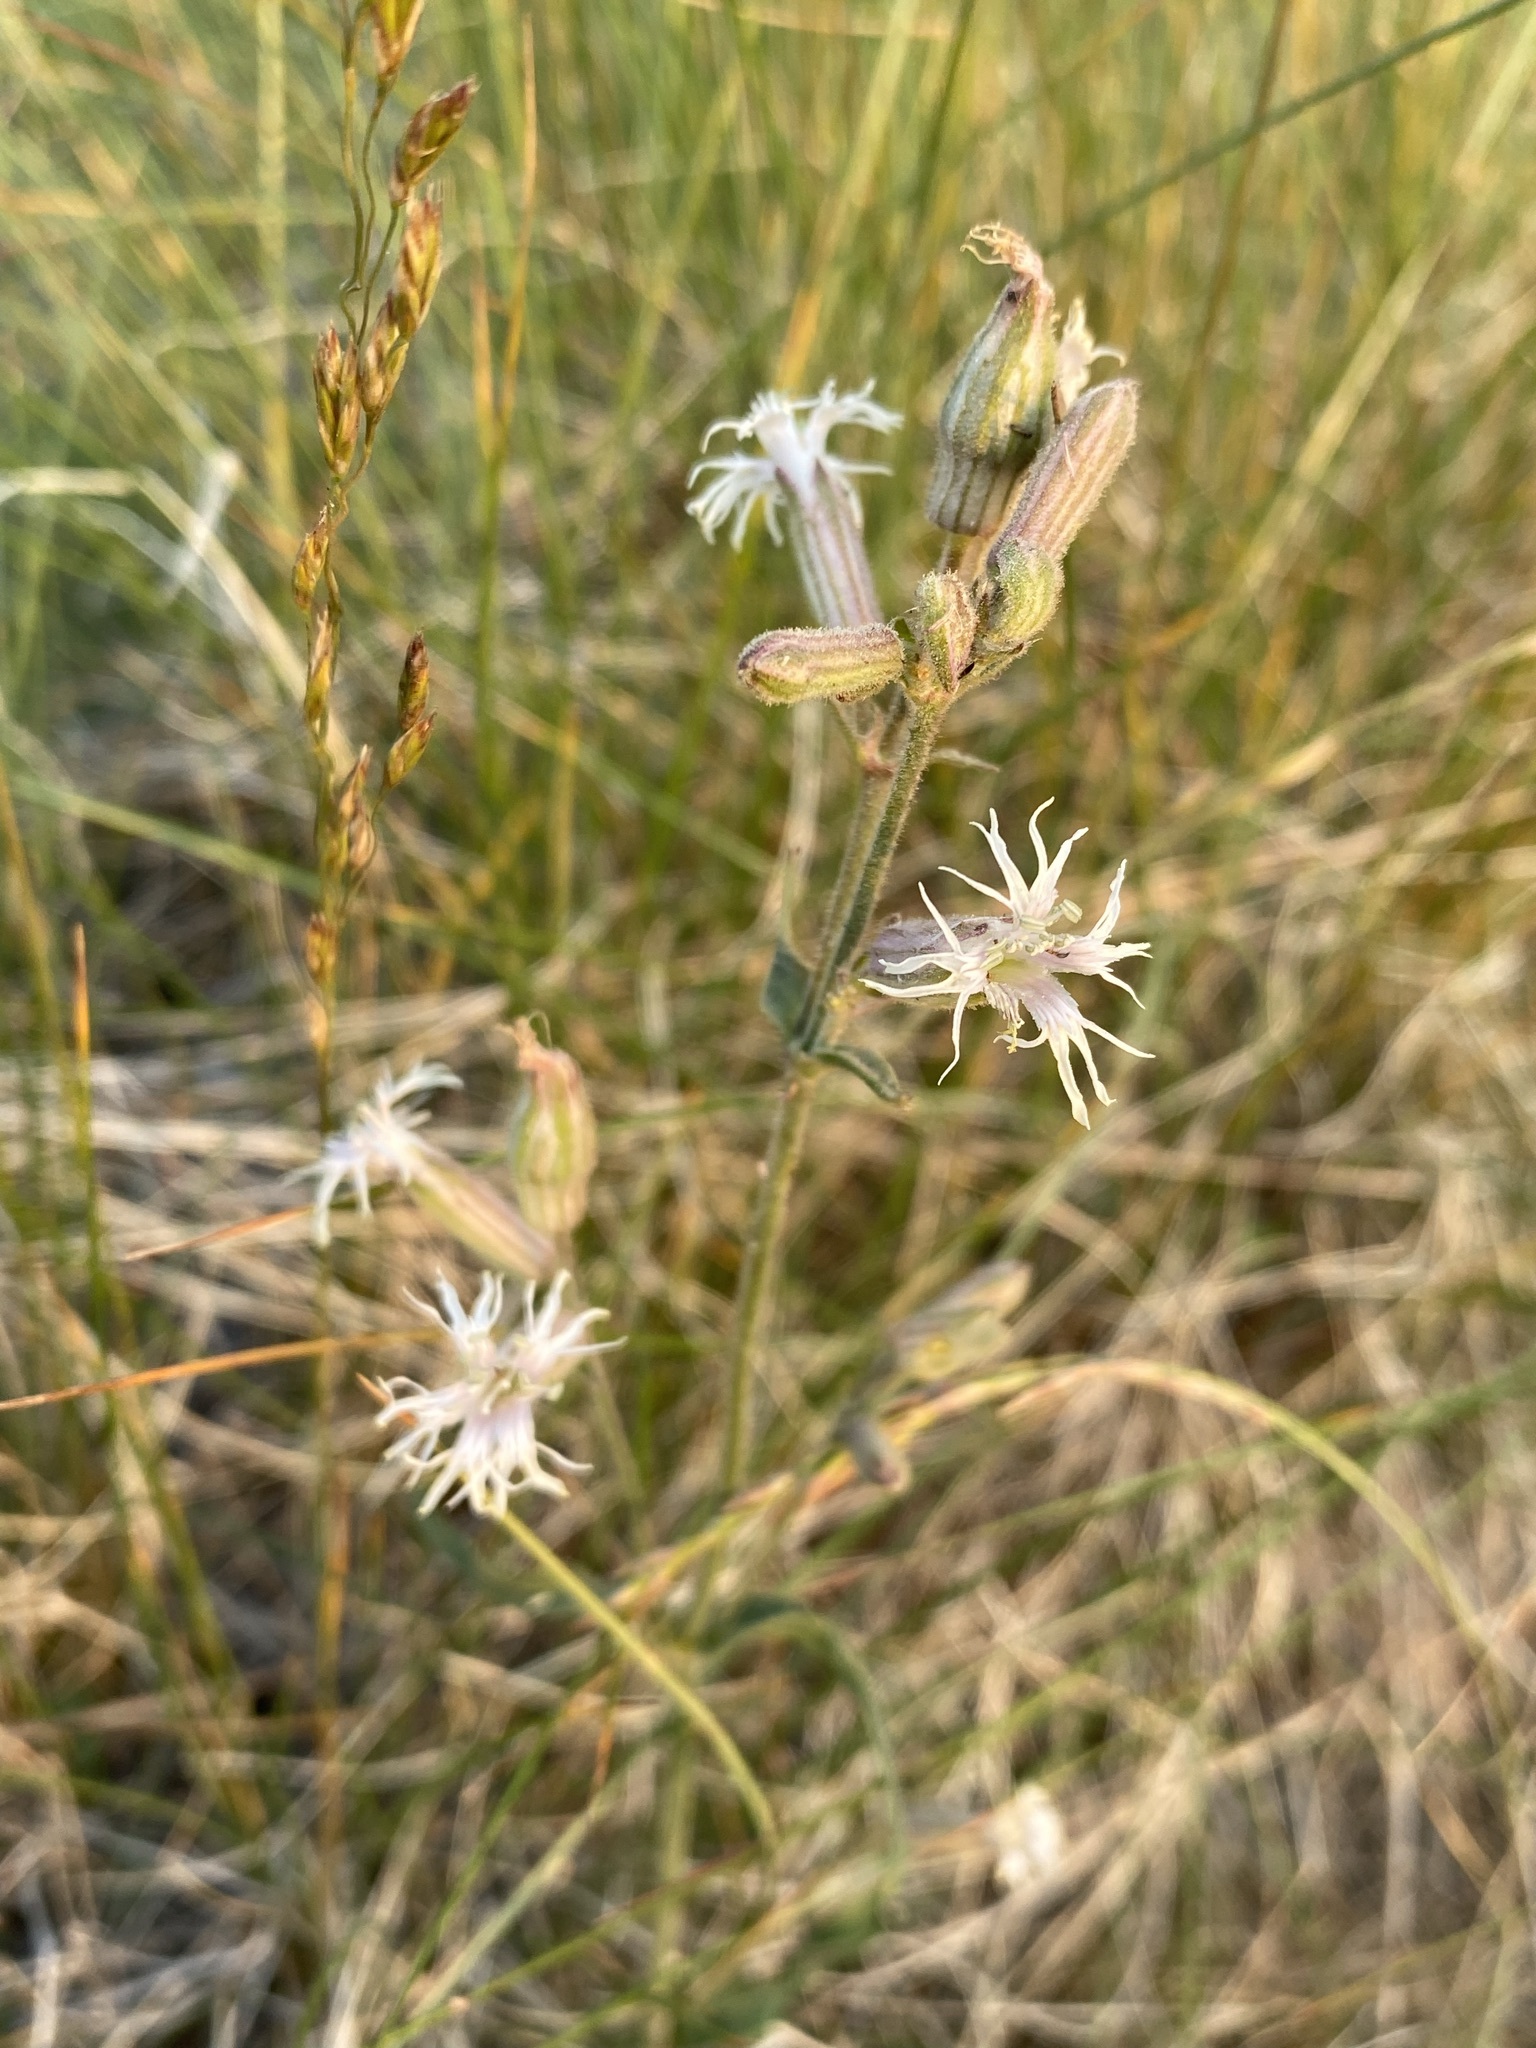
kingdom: Plantae
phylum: Tracheophyta
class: Magnoliopsida
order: Caryophyllales
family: Caryophyllaceae
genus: Silene
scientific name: Silene oregana
